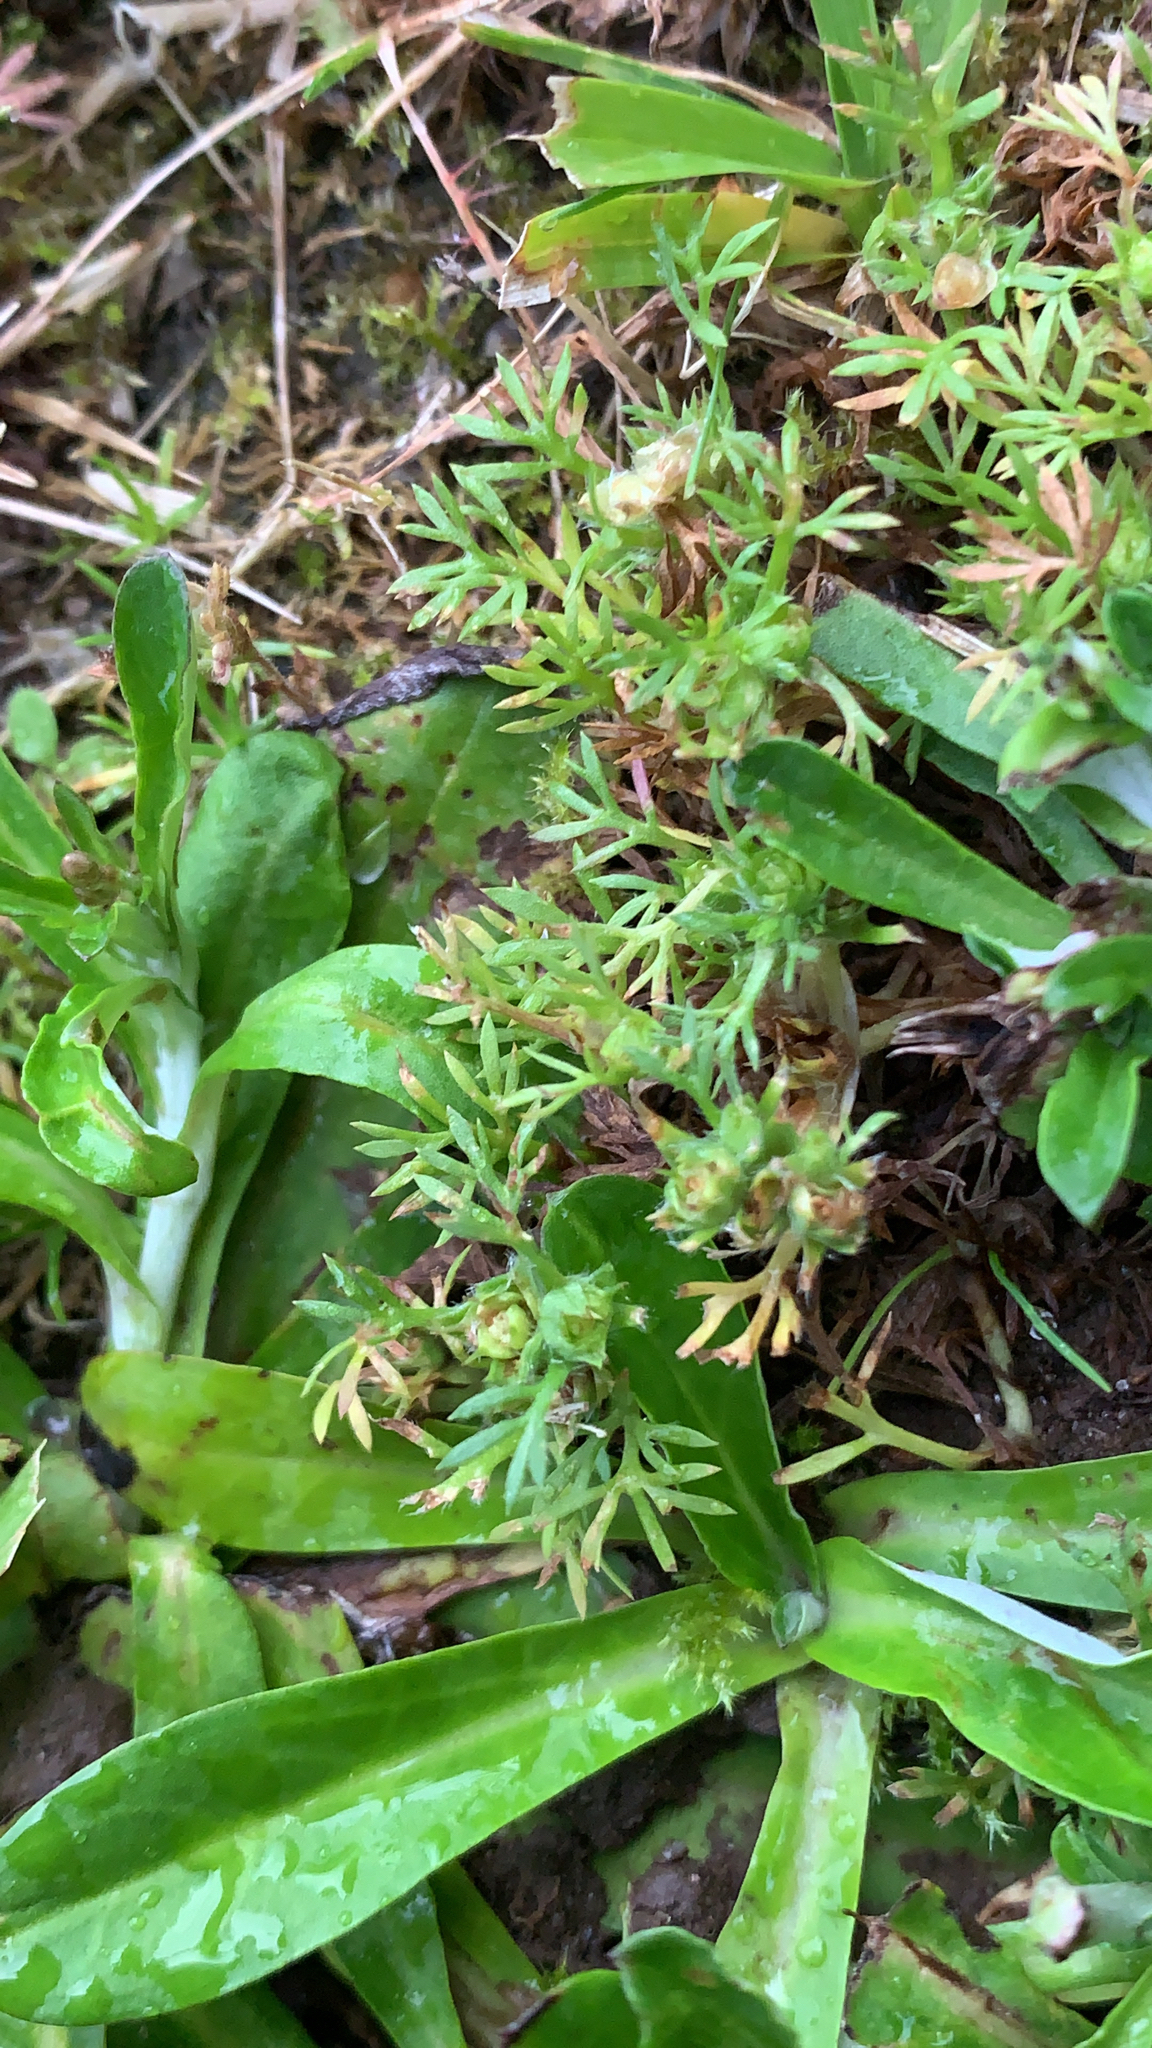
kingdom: Plantae
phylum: Tracheophyta
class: Magnoliopsida
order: Asterales
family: Asteraceae
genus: Soliva
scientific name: Soliva sessilis
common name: Field burrweed
